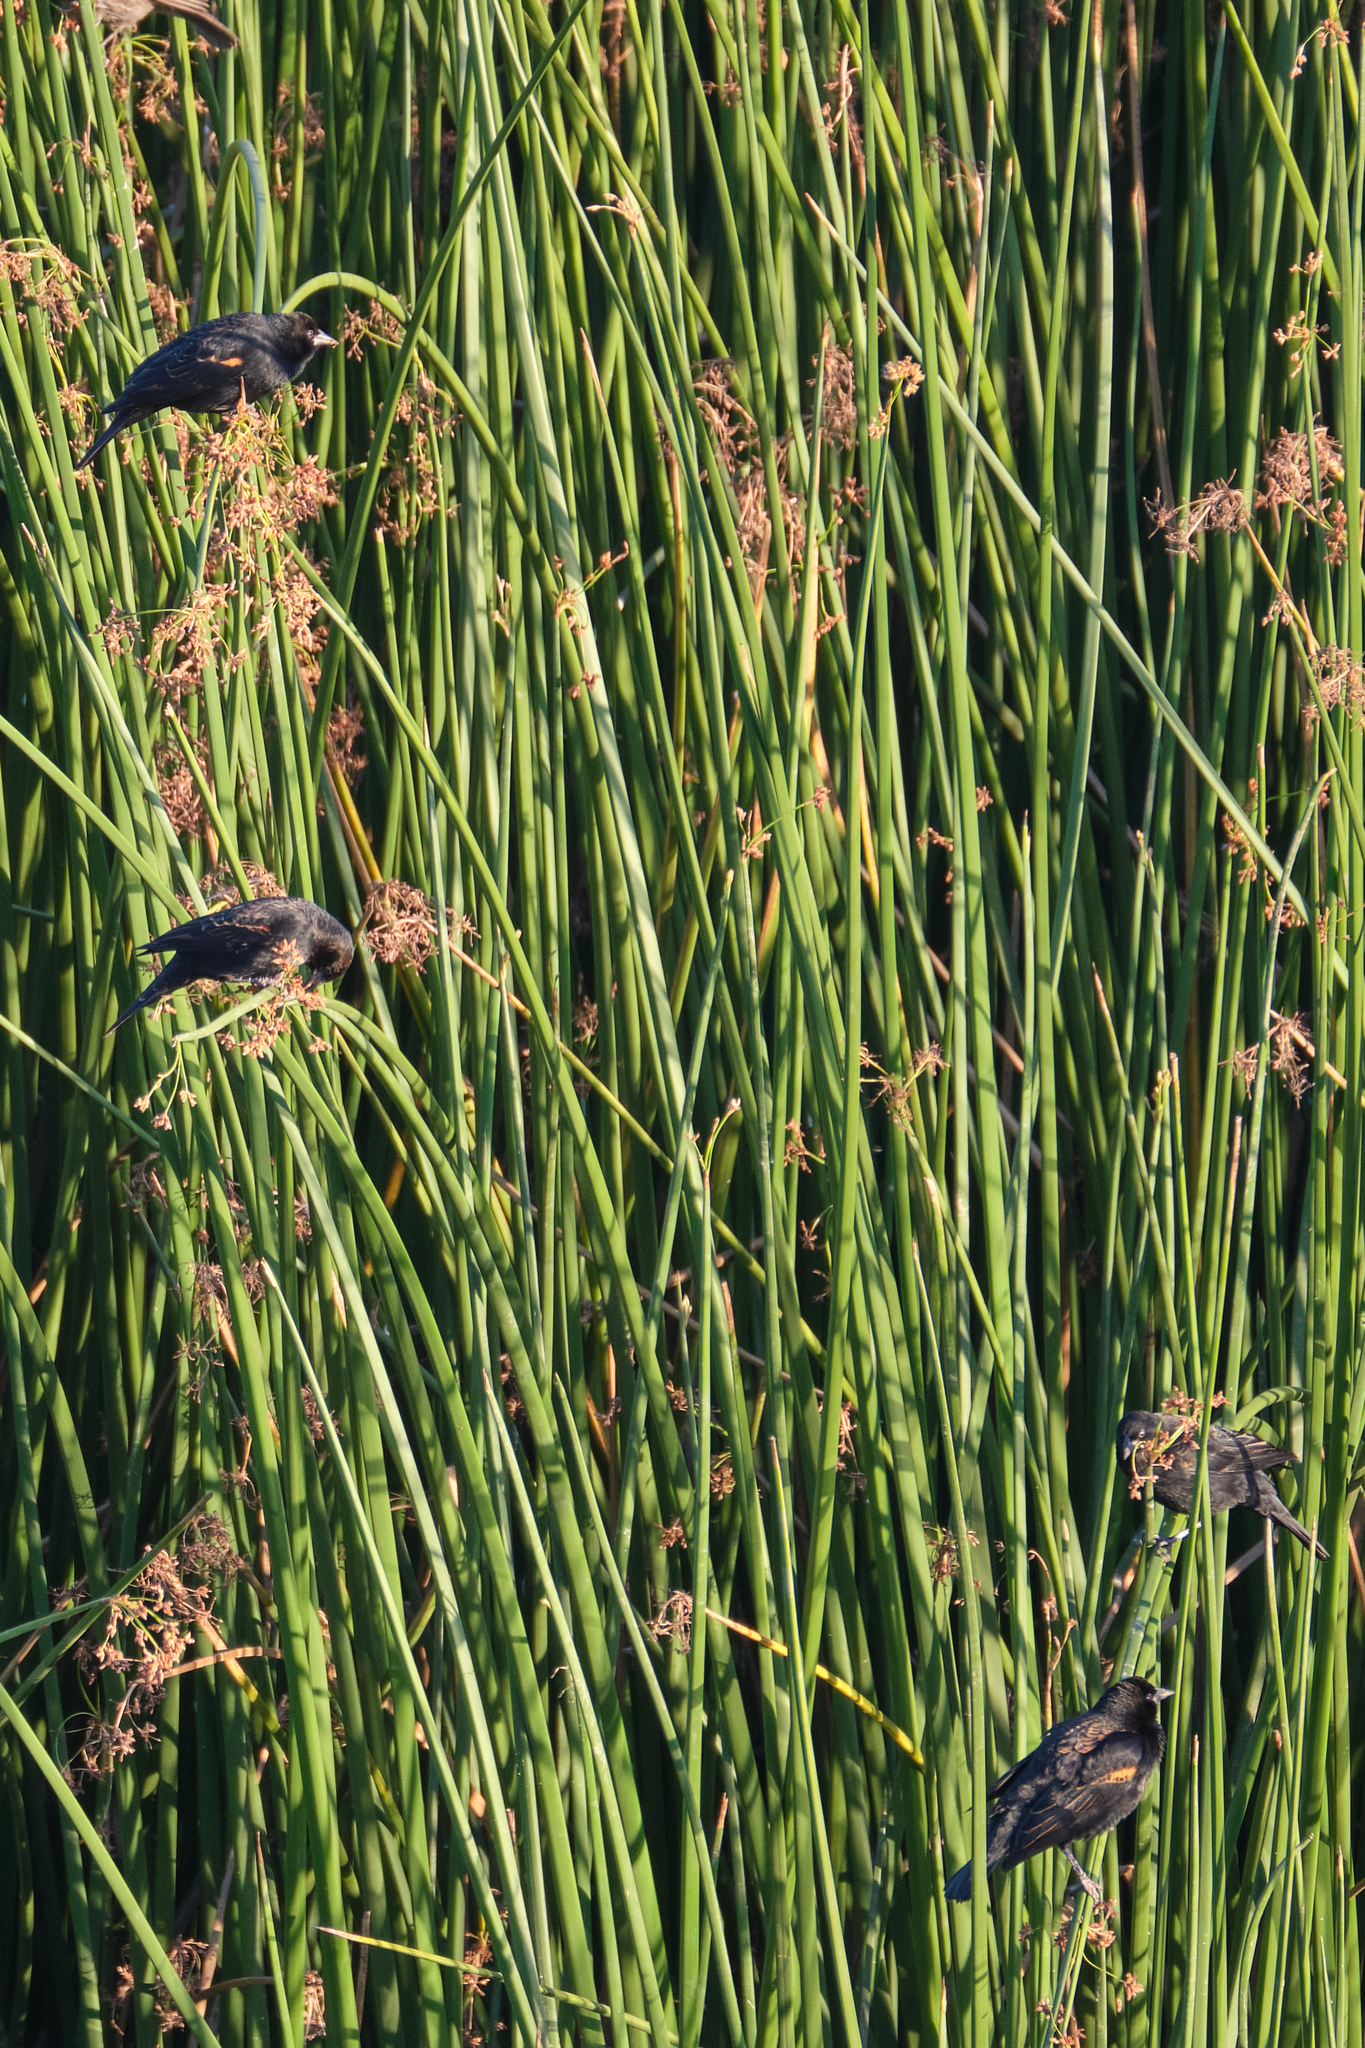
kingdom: Animalia
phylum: Chordata
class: Aves
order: Passeriformes
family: Icteridae
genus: Agelaius
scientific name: Agelaius phoeniceus
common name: Red-winged blackbird
